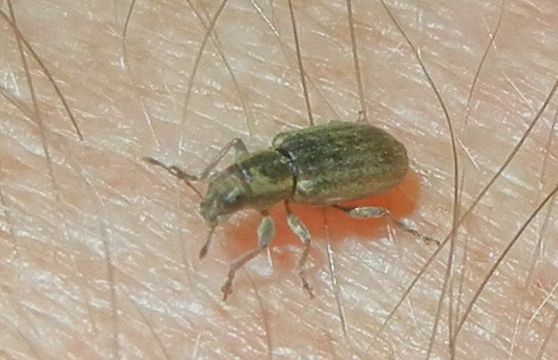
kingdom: Animalia
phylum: Arthropoda
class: Insecta
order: Coleoptera
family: Curculionidae
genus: Sitona
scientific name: Sitona lineatus
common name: Weevil
